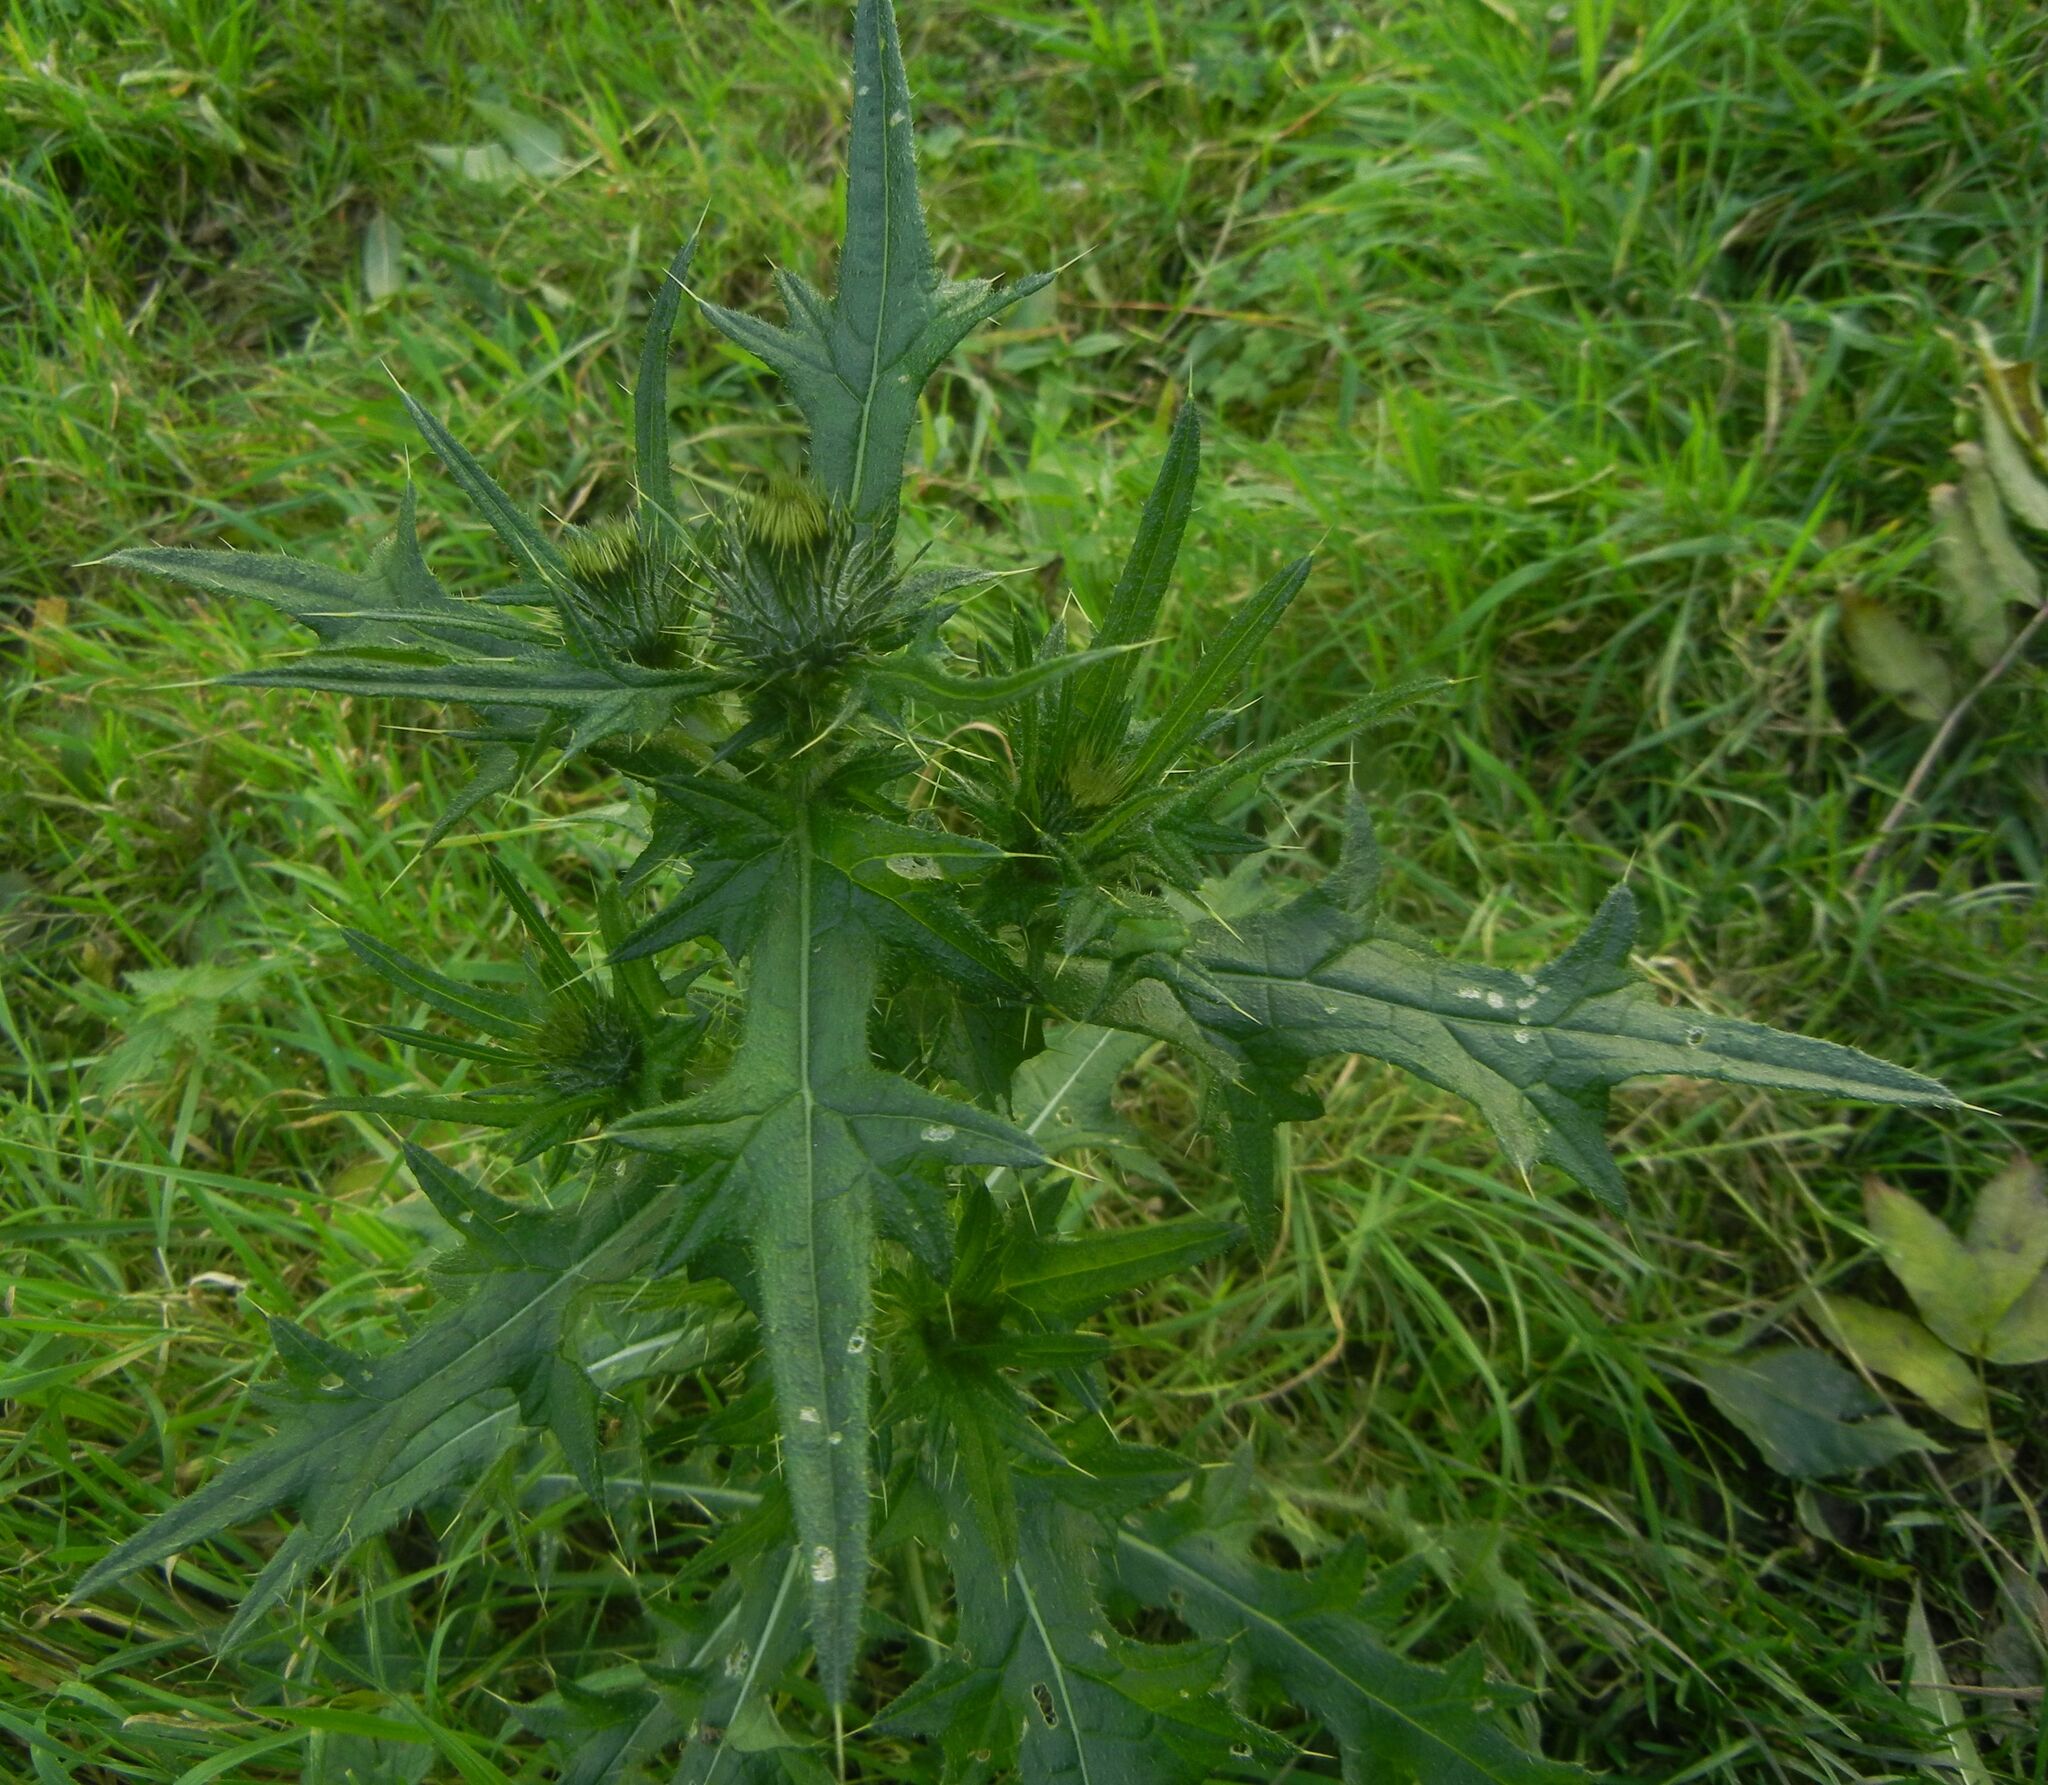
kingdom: Plantae
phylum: Tracheophyta
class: Magnoliopsida
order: Asterales
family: Asteraceae
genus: Cirsium
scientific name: Cirsium vulgare
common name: Bull thistle
